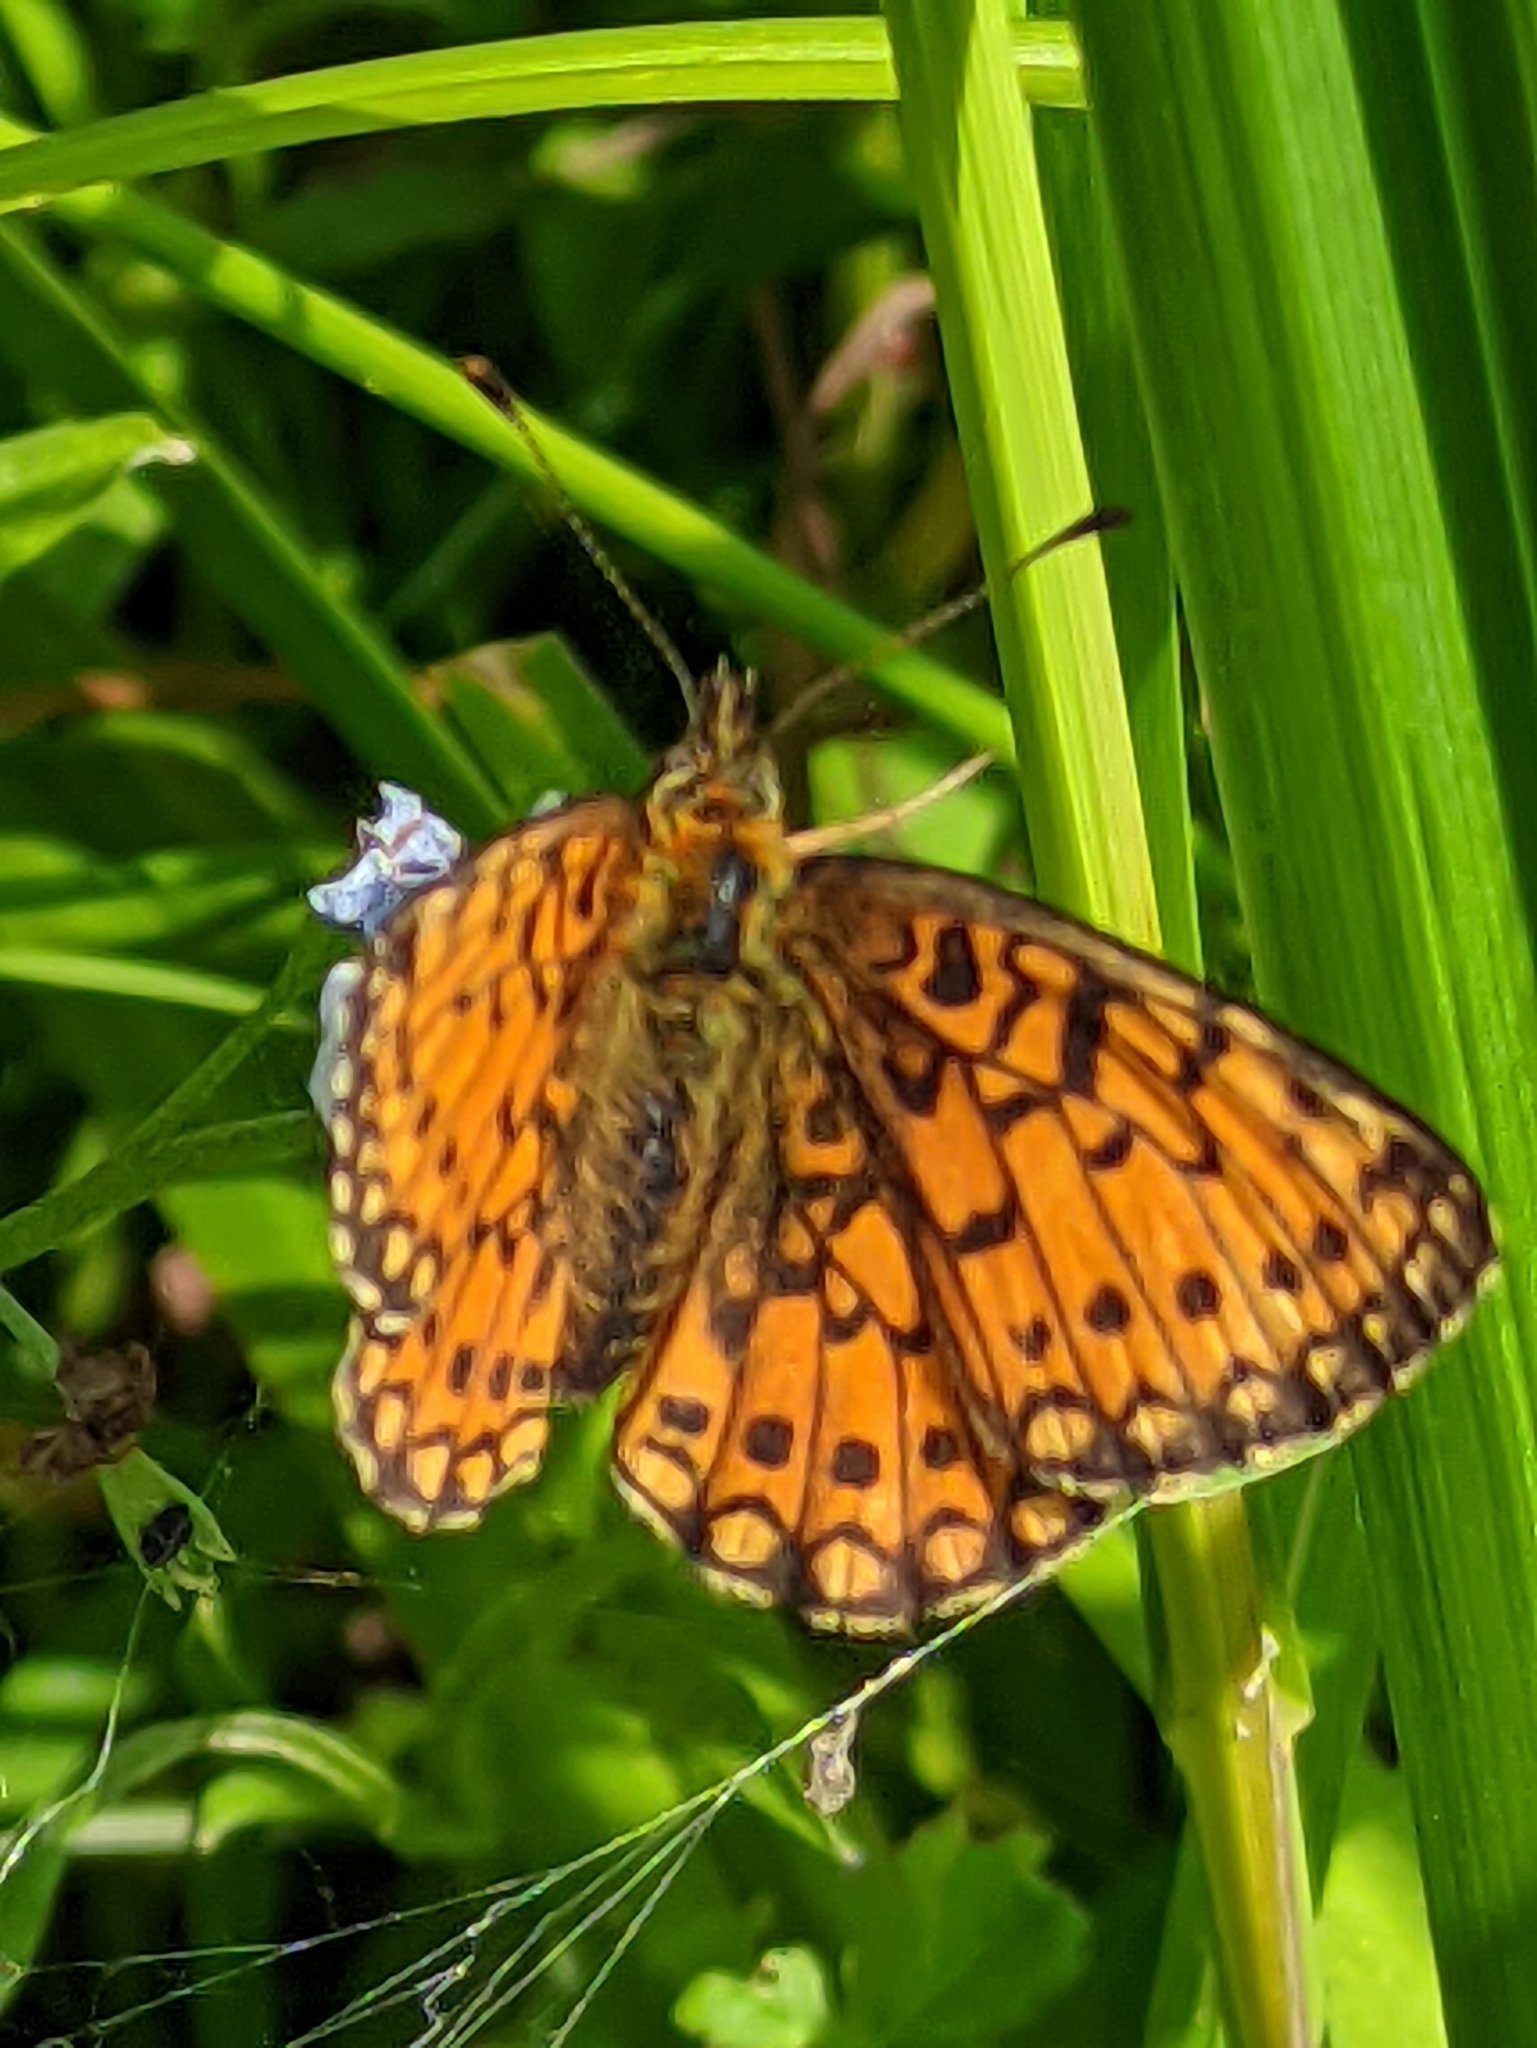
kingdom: Animalia
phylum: Arthropoda
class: Insecta
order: Lepidoptera
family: Nymphalidae
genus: Boloria
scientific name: Boloria selene
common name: Small pearl-bordered fritillary
